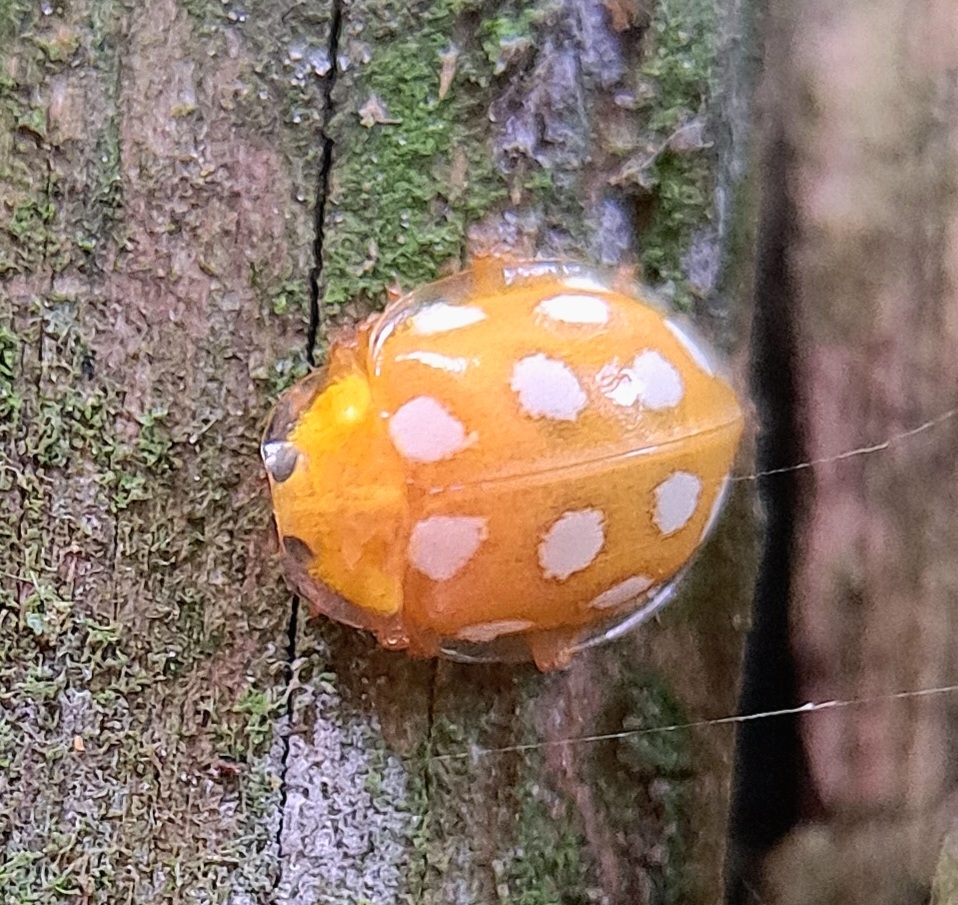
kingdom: Animalia
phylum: Arthropoda
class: Insecta
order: Coleoptera
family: Coccinellidae
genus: Halyzia
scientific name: Halyzia sedecimguttata
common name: Orange ladybird
